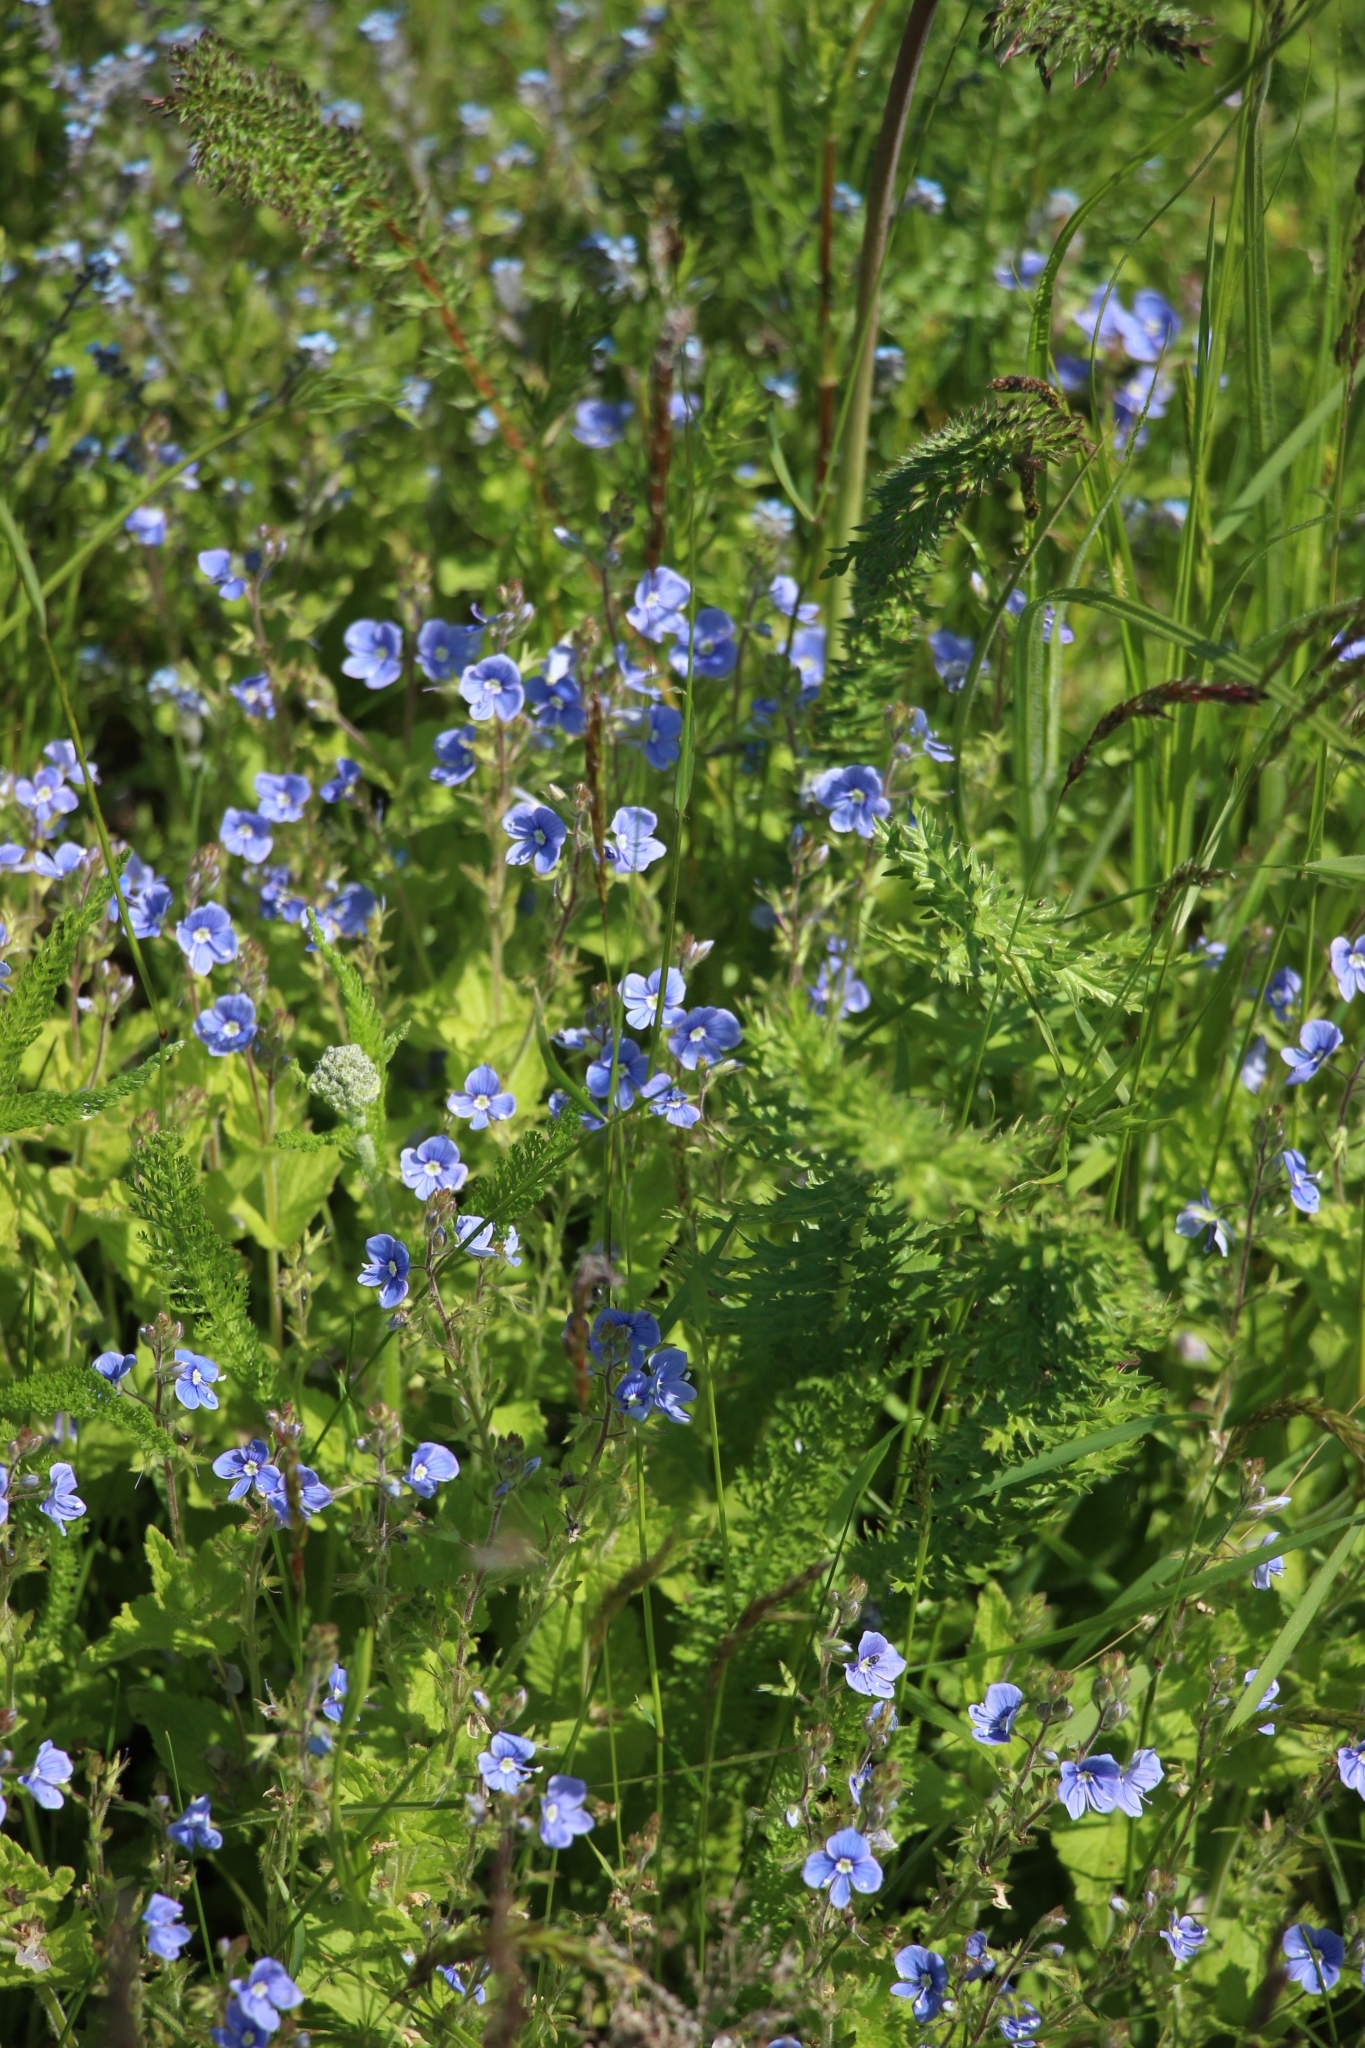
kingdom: Plantae
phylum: Tracheophyta
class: Magnoliopsida
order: Lamiales
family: Plantaginaceae
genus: Veronica
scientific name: Veronica chamaedrys
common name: Germander speedwell
